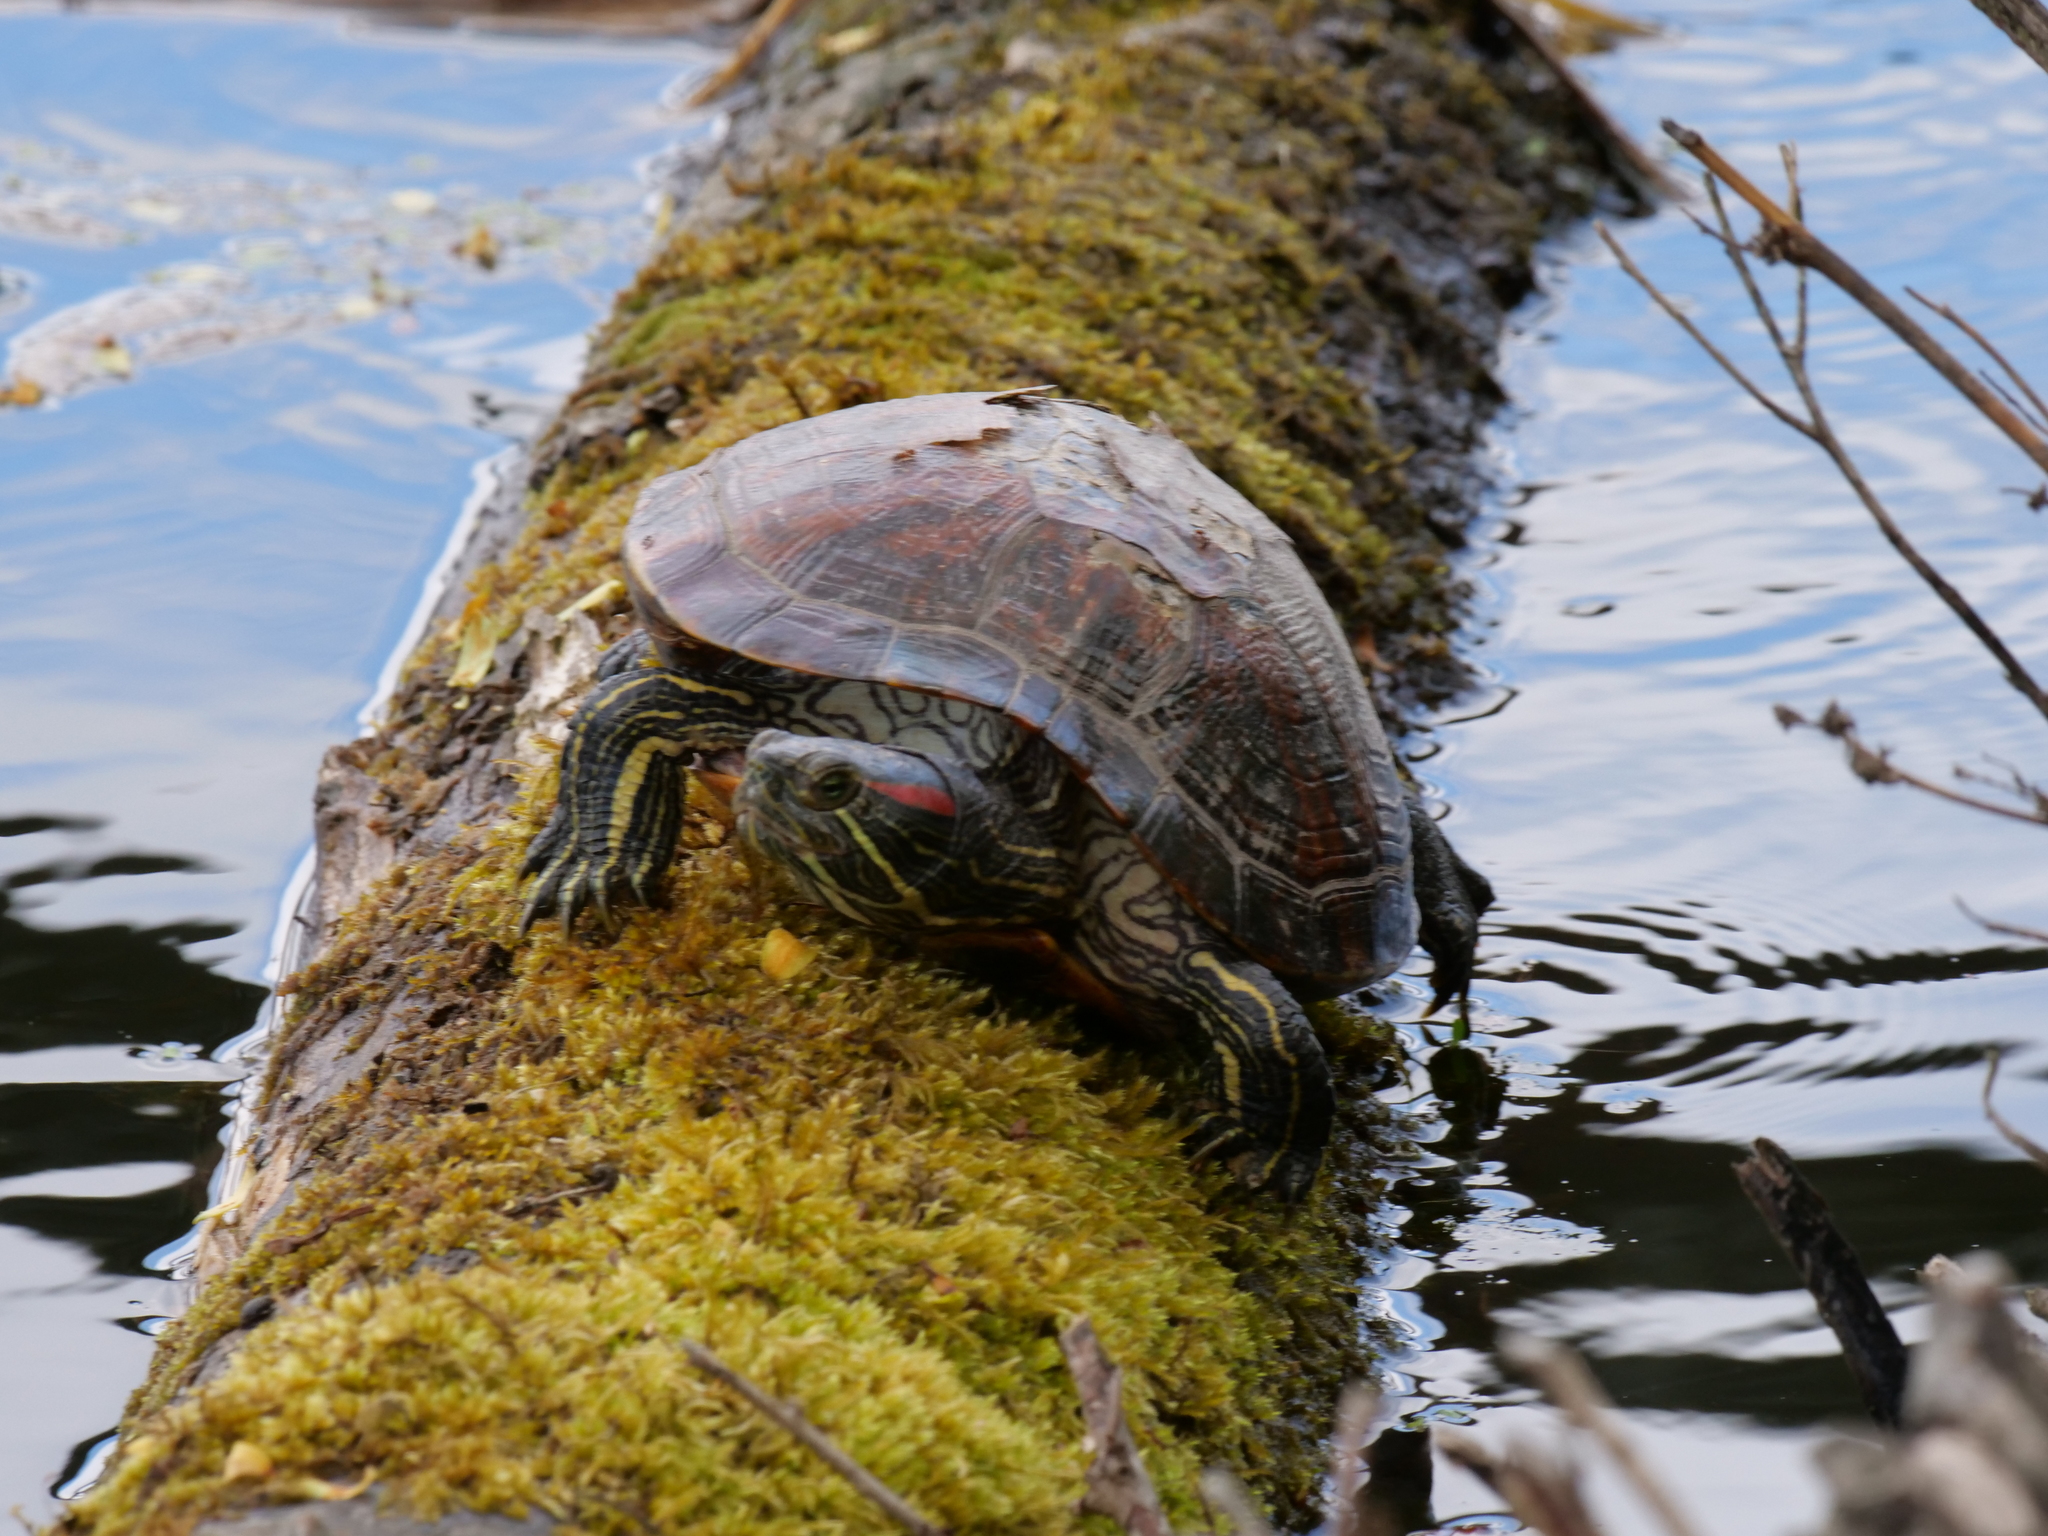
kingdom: Animalia
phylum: Chordata
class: Testudines
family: Emydidae
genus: Trachemys
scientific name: Trachemys scripta
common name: Slider
